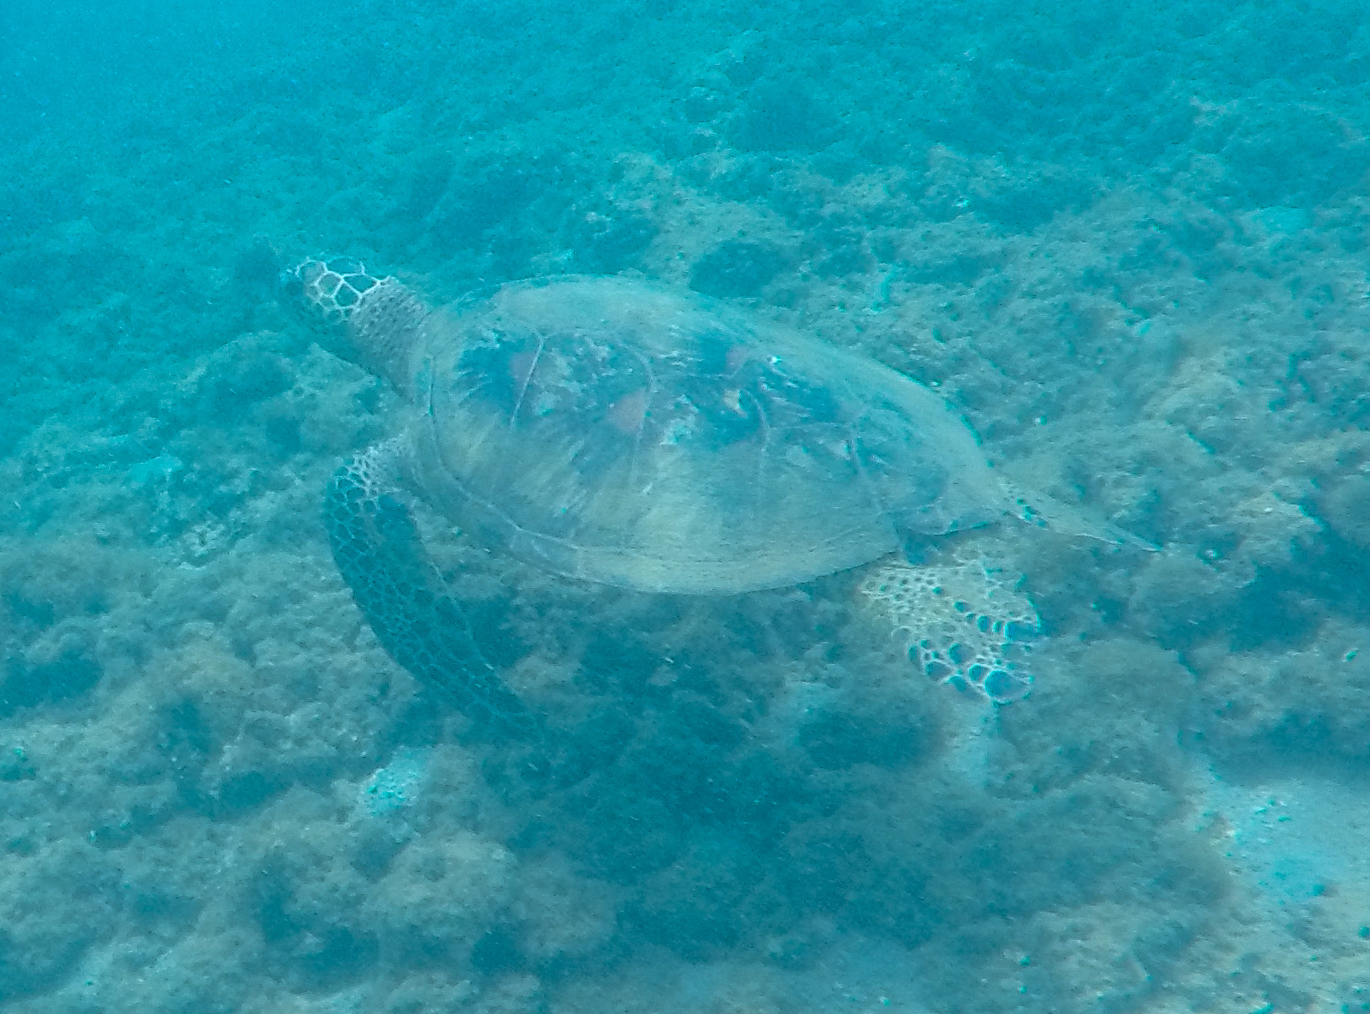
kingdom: Animalia
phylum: Chordata
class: Testudines
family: Cheloniidae
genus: Chelonia
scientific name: Chelonia mydas
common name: Green turtle
